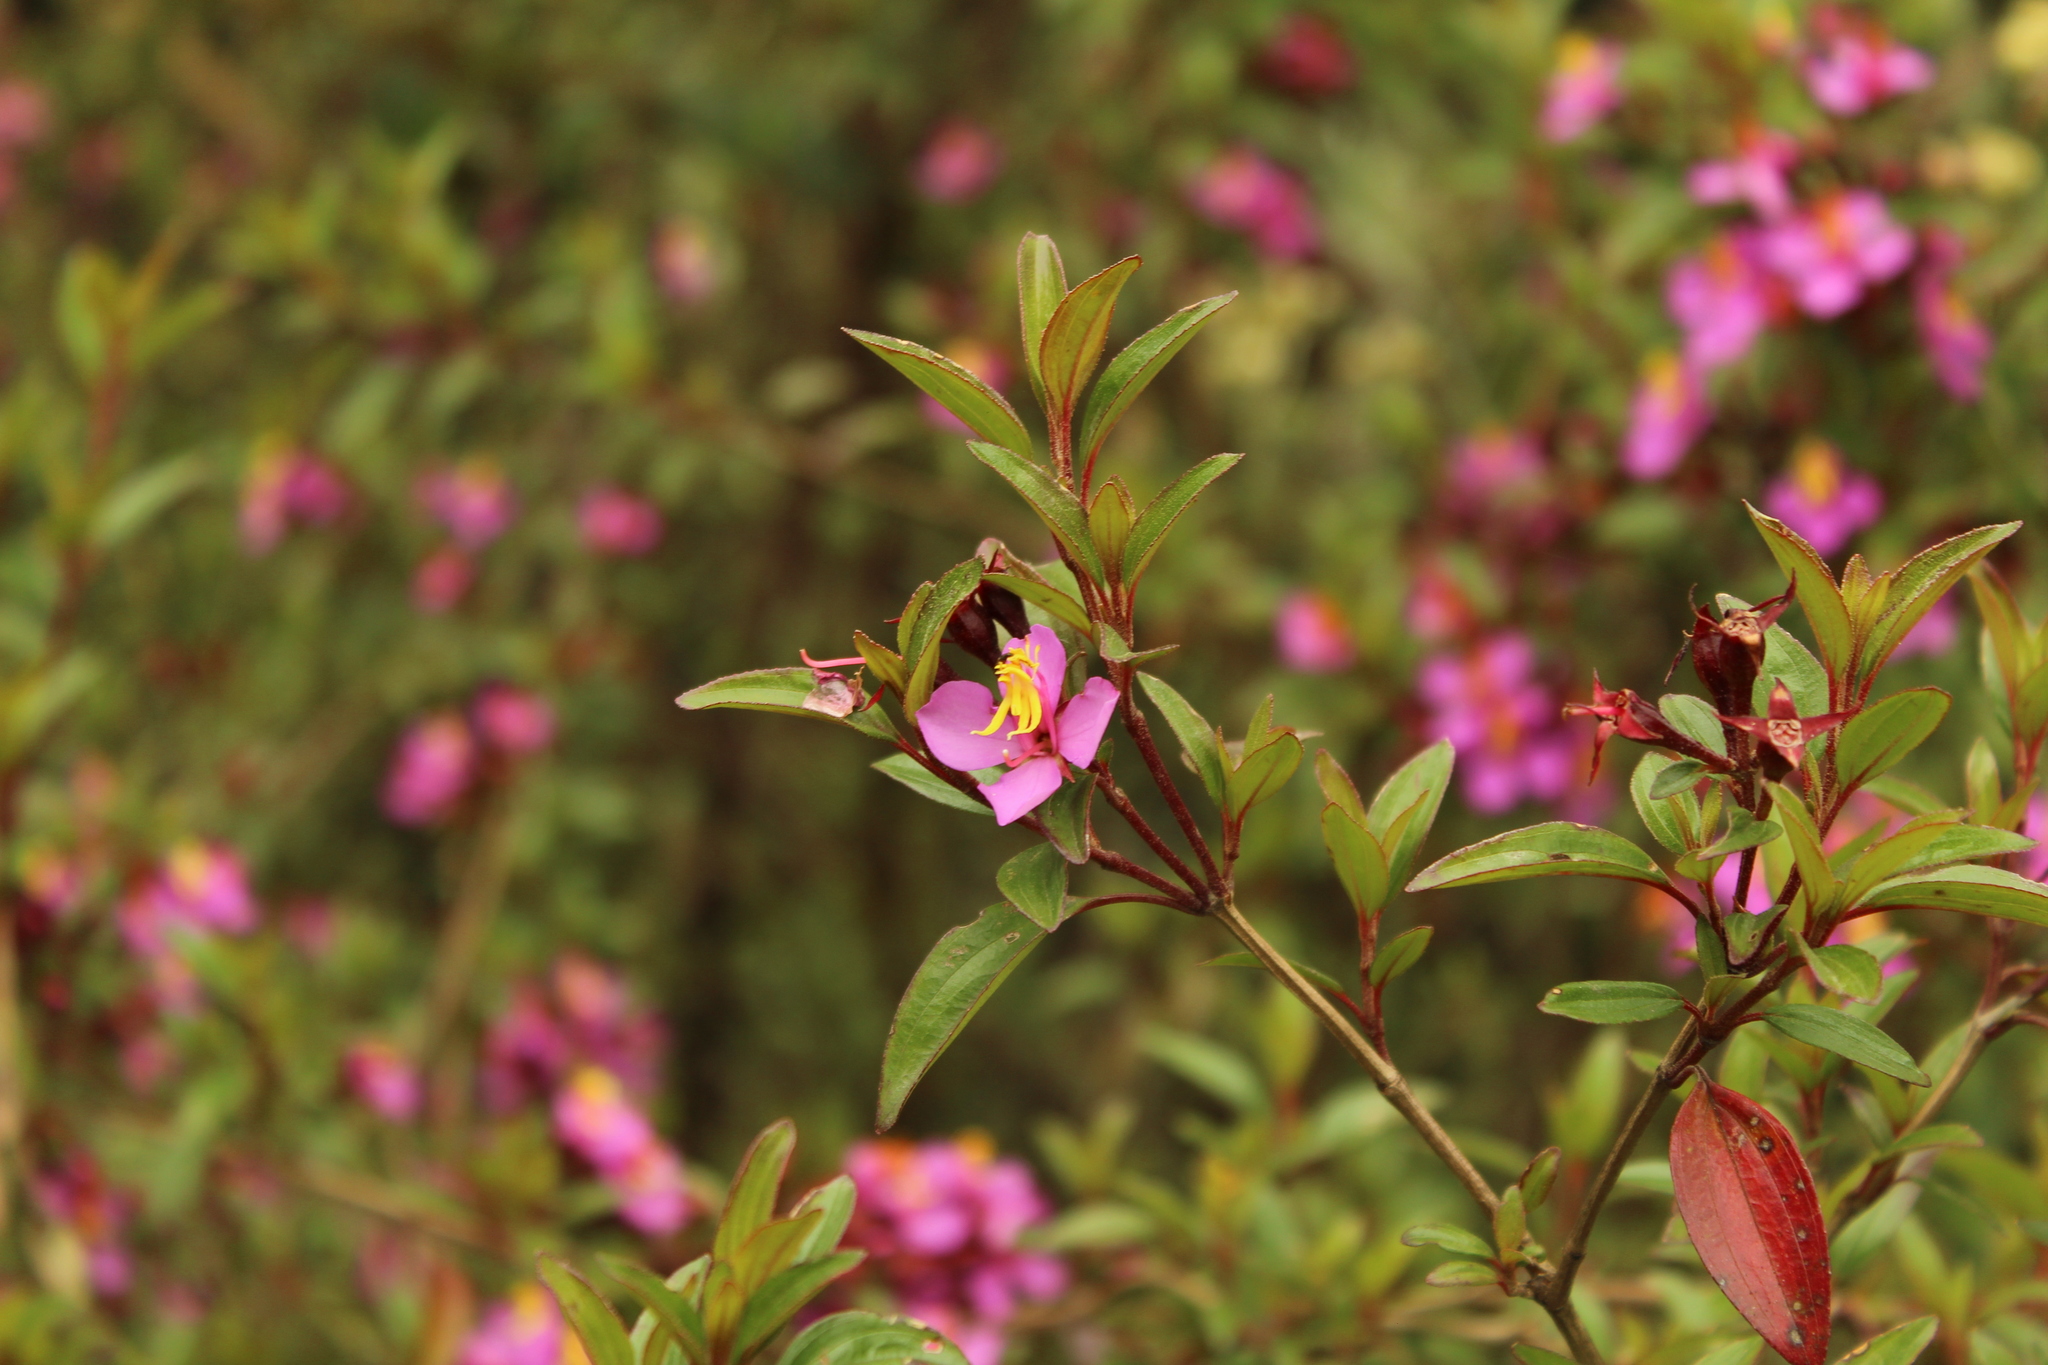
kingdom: Plantae
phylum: Tracheophyta
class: Magnoliopsida
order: Myrtales
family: Melastomataceae
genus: Monochaetum
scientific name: Monochaetum myrtoideum
